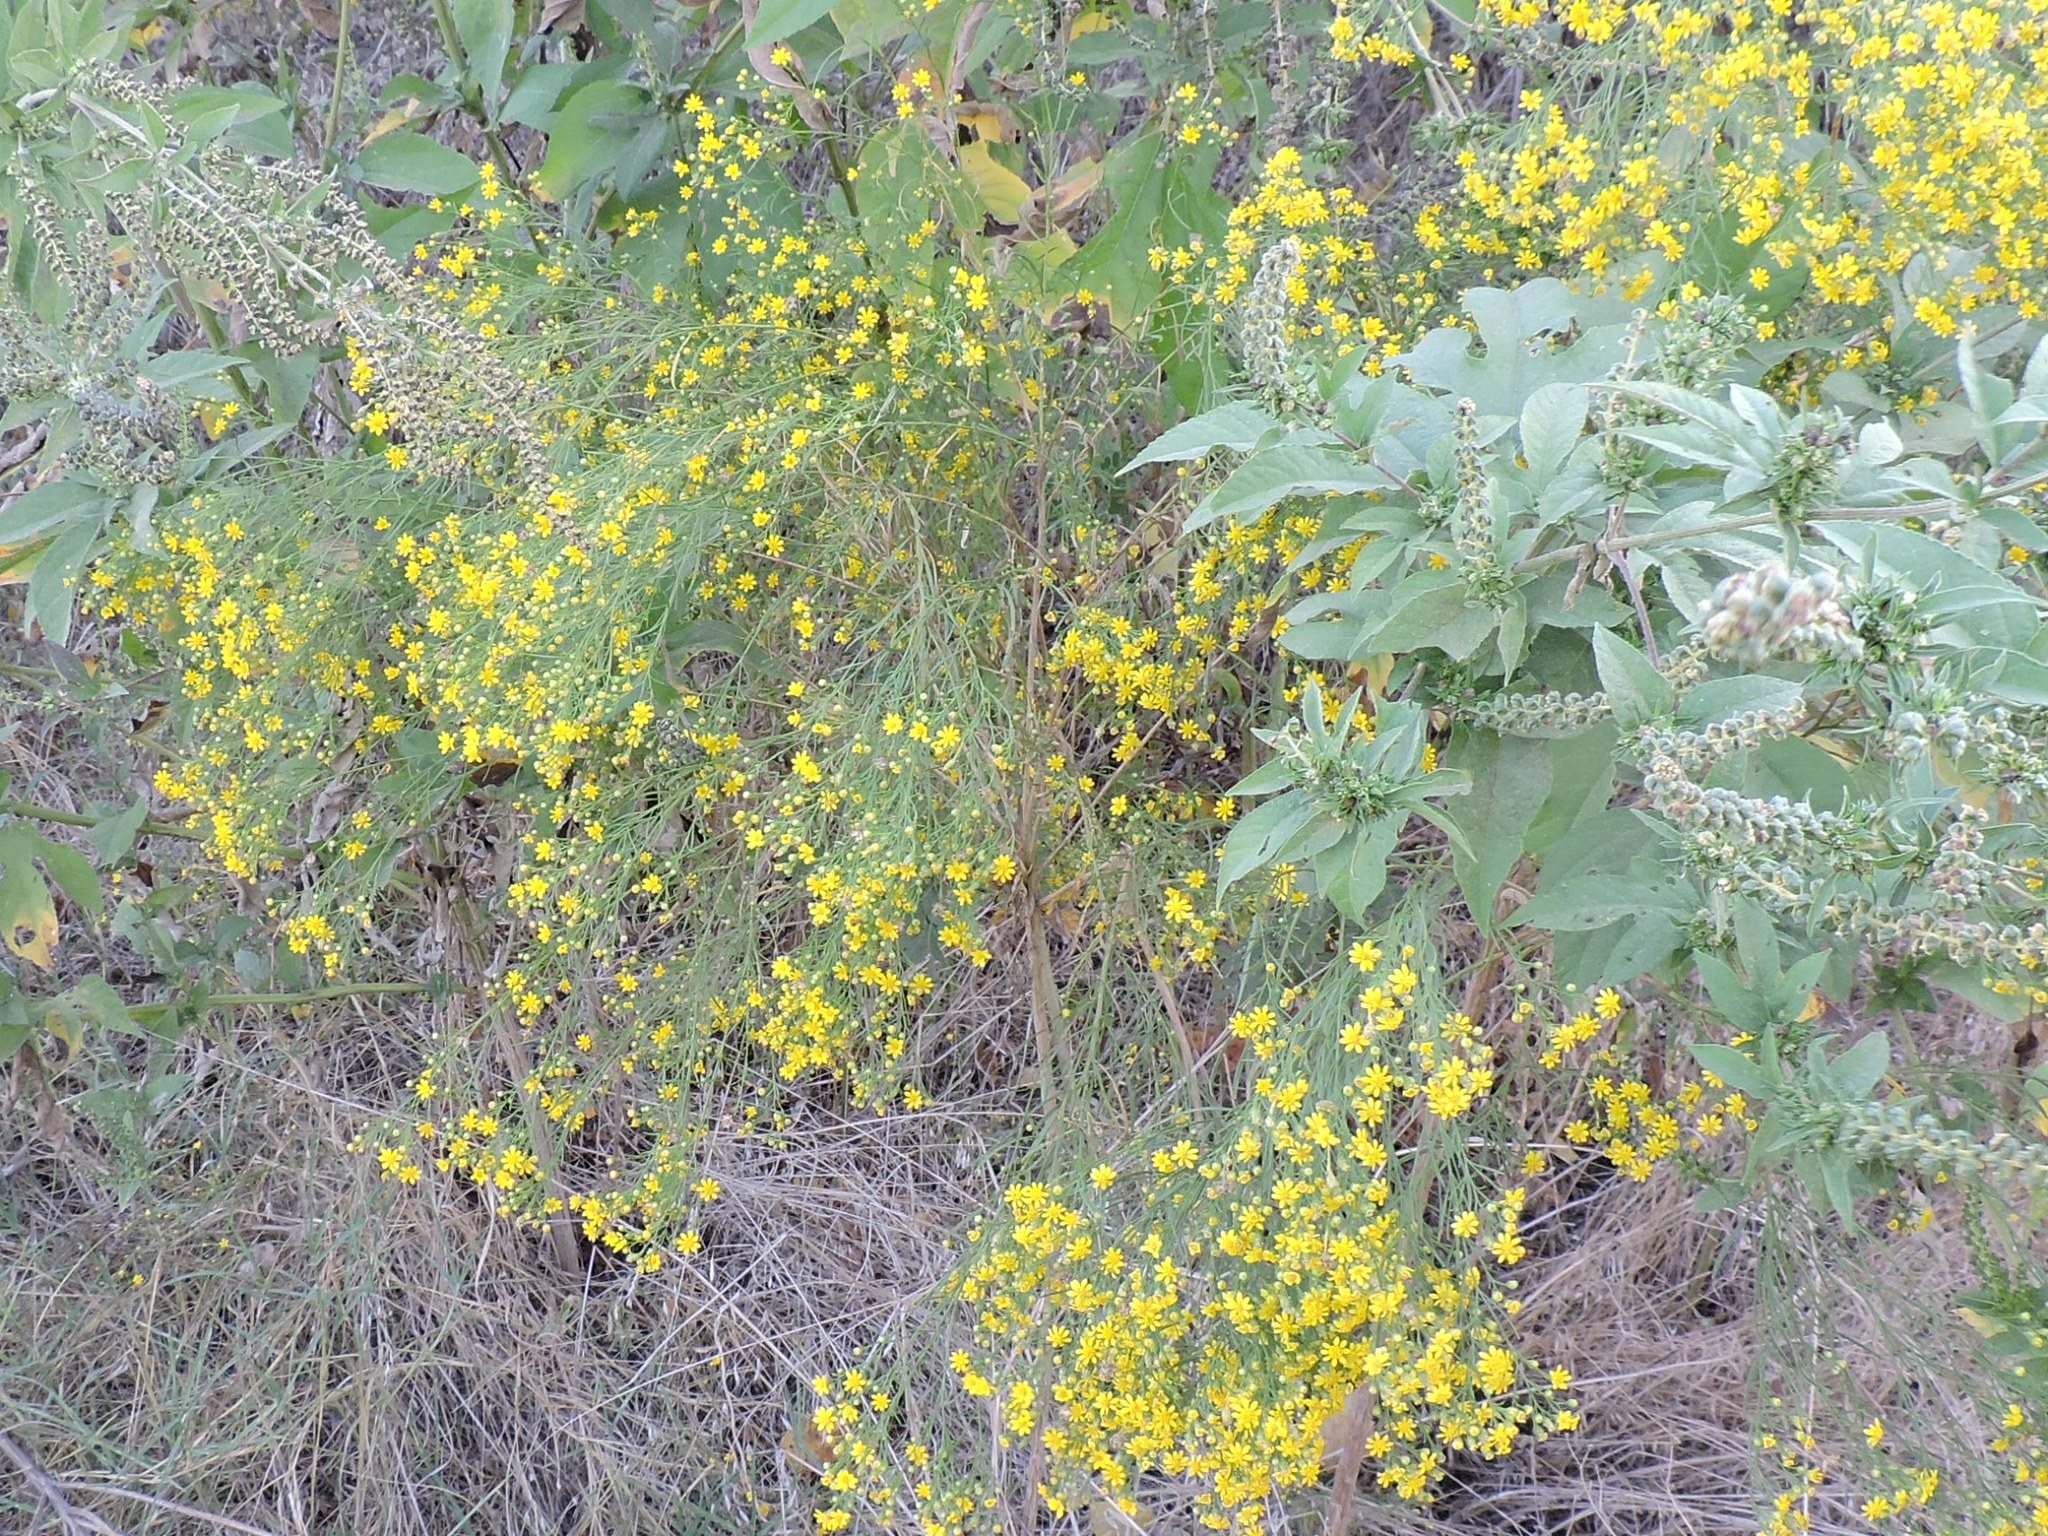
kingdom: Plantae
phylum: Tracheophyta
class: Magnoliopsida
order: Asterales
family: Asteraceae
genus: Amphiachyris
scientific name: Amphiachyris dracunculoides
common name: Broomweed
